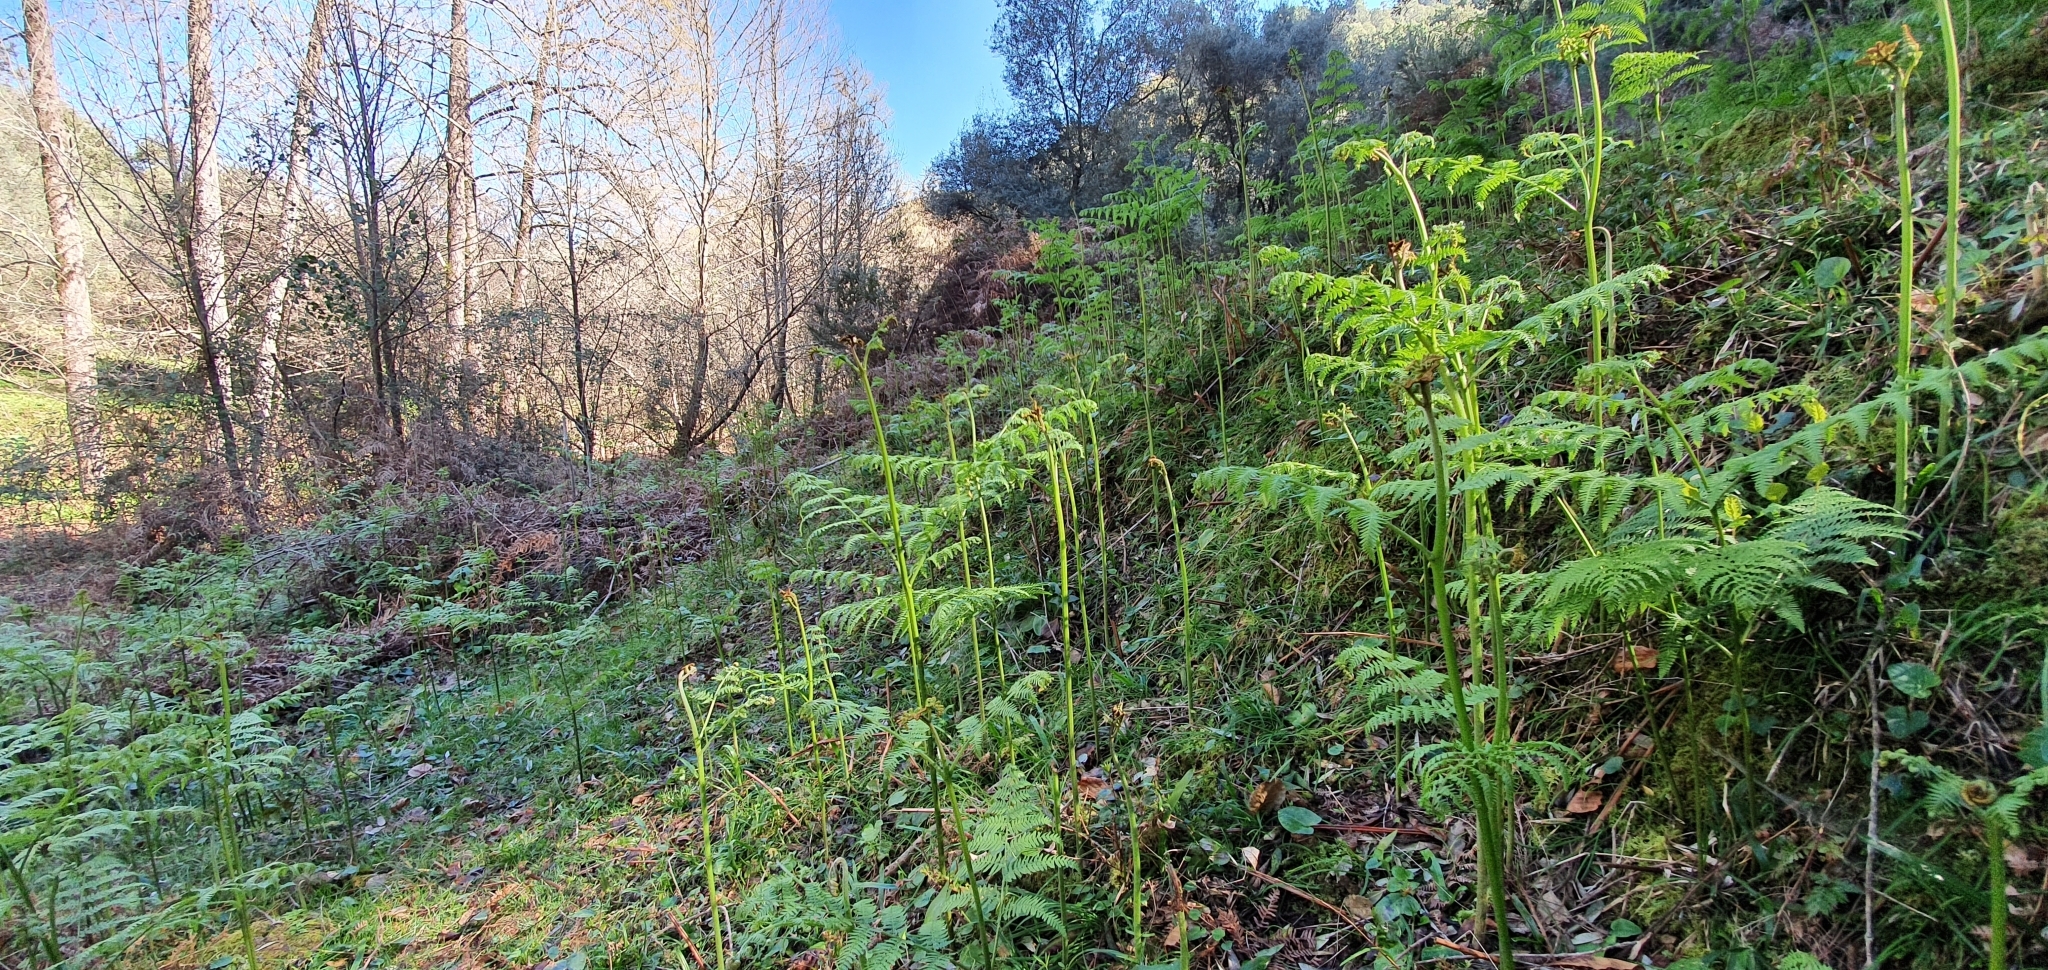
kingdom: Plantae
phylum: Tracheophyta
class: Polypodiopsida
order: Polypodiales
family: Dennstaedtiaceae
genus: Pteridium
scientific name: Pteridium aquilinum
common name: Bracken
